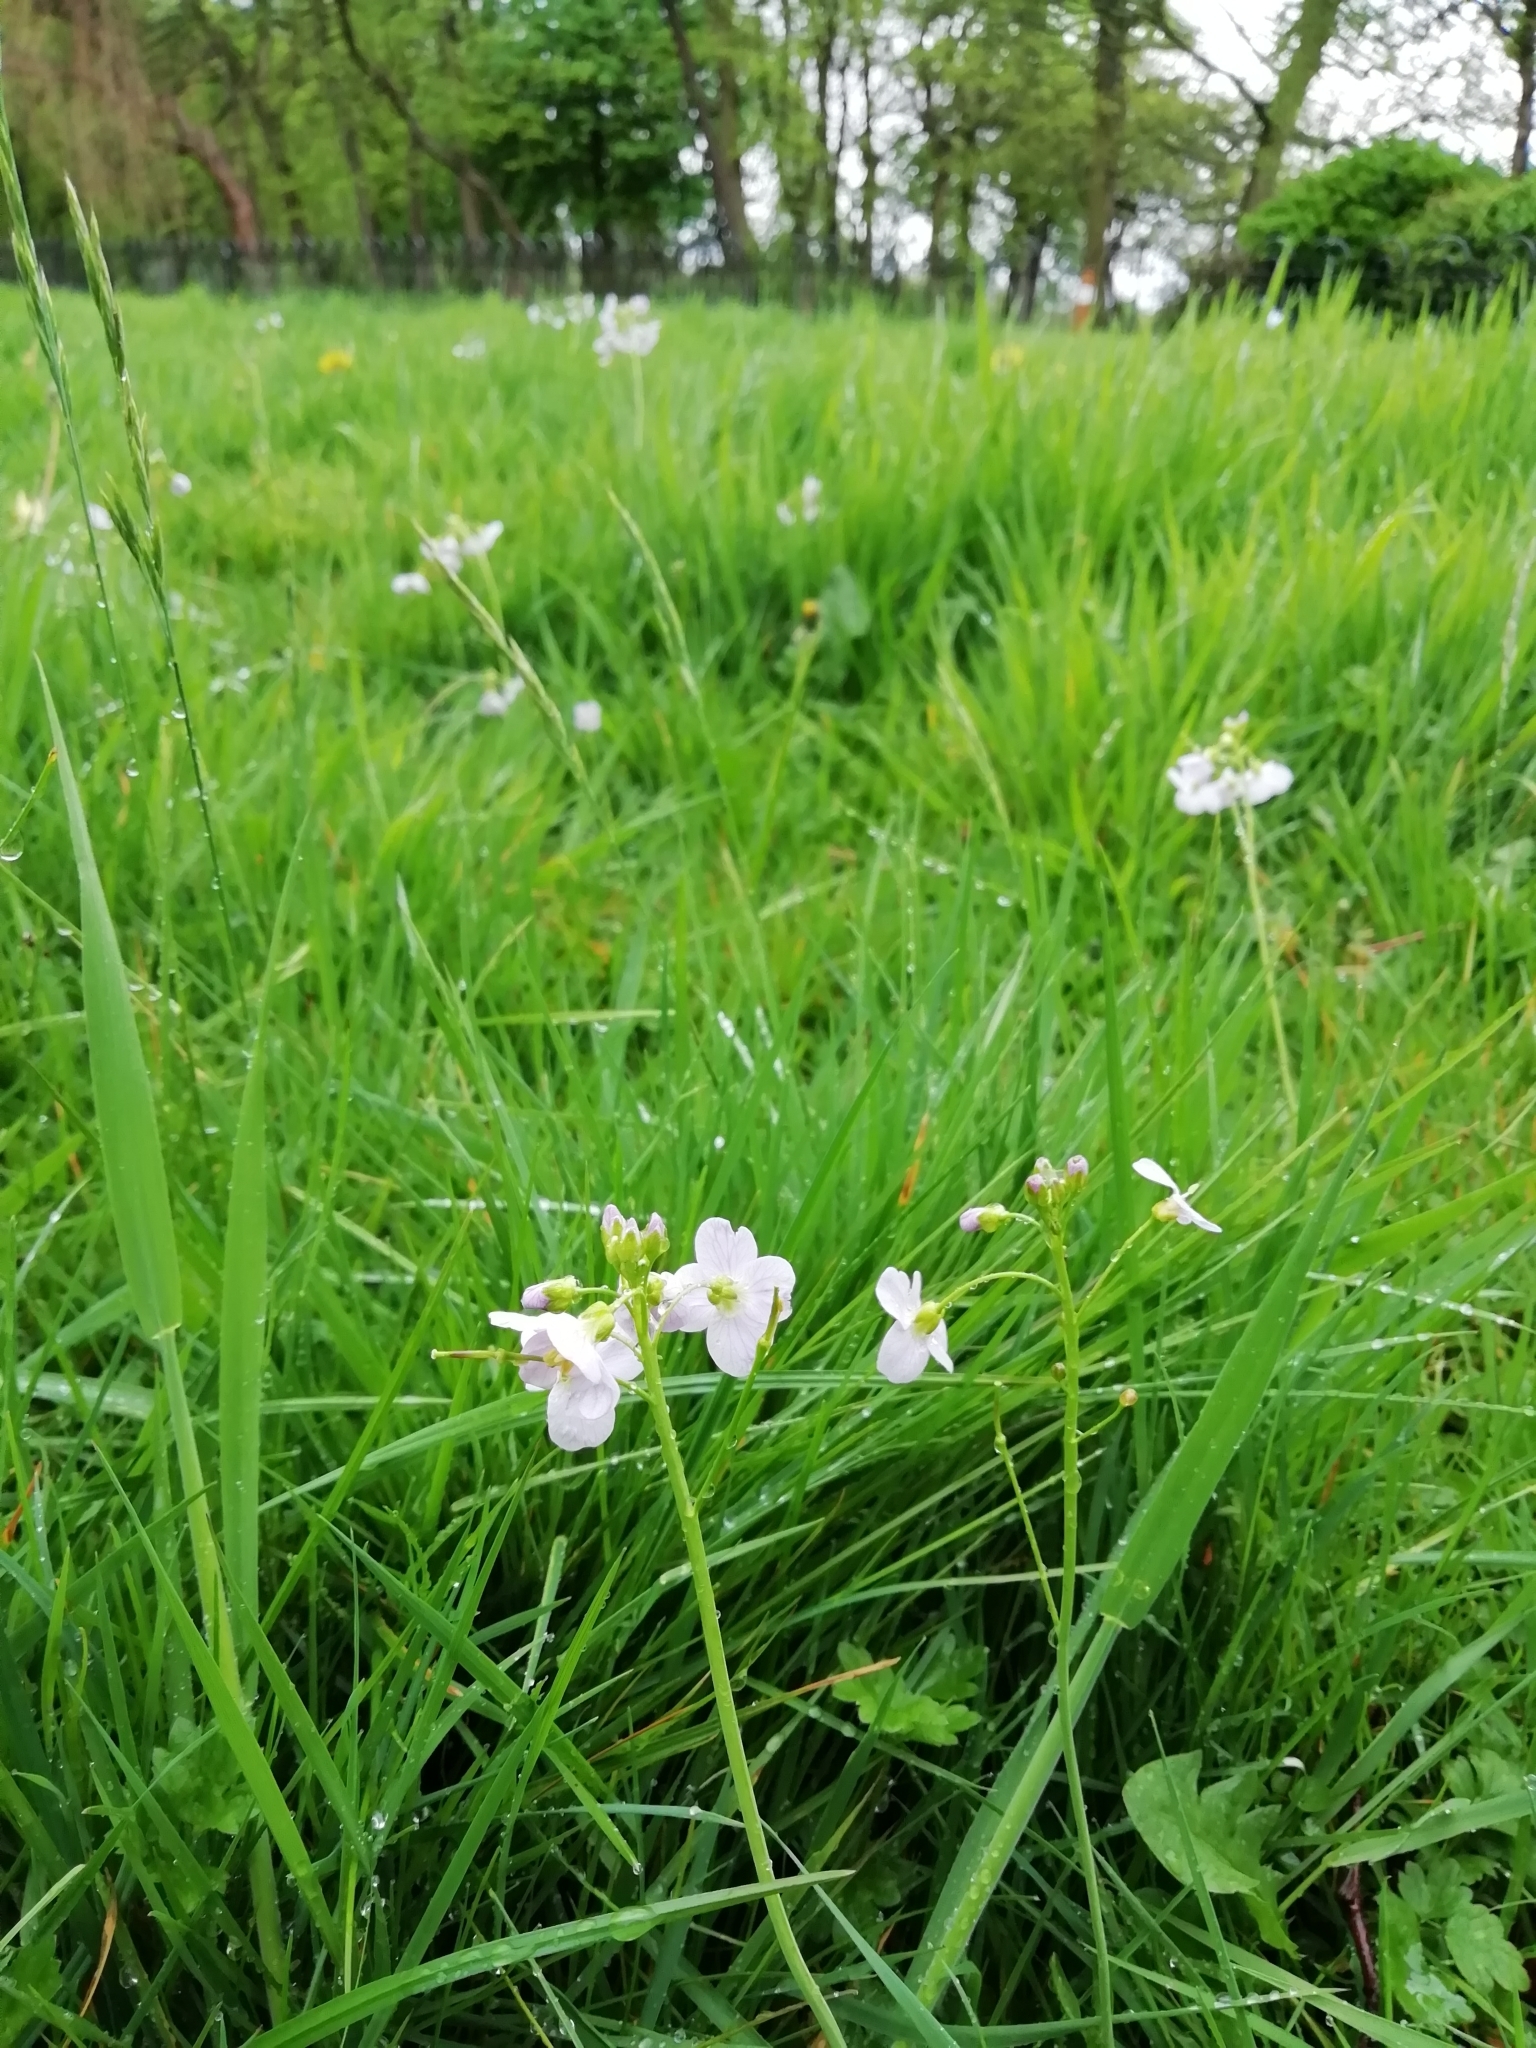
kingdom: Plantae
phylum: Tracheophyta
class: Magnoliopsida
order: Brassicales
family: Brassicaceae
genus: Cardamine
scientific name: Cardamine pratensis
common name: Cuckoo flower
